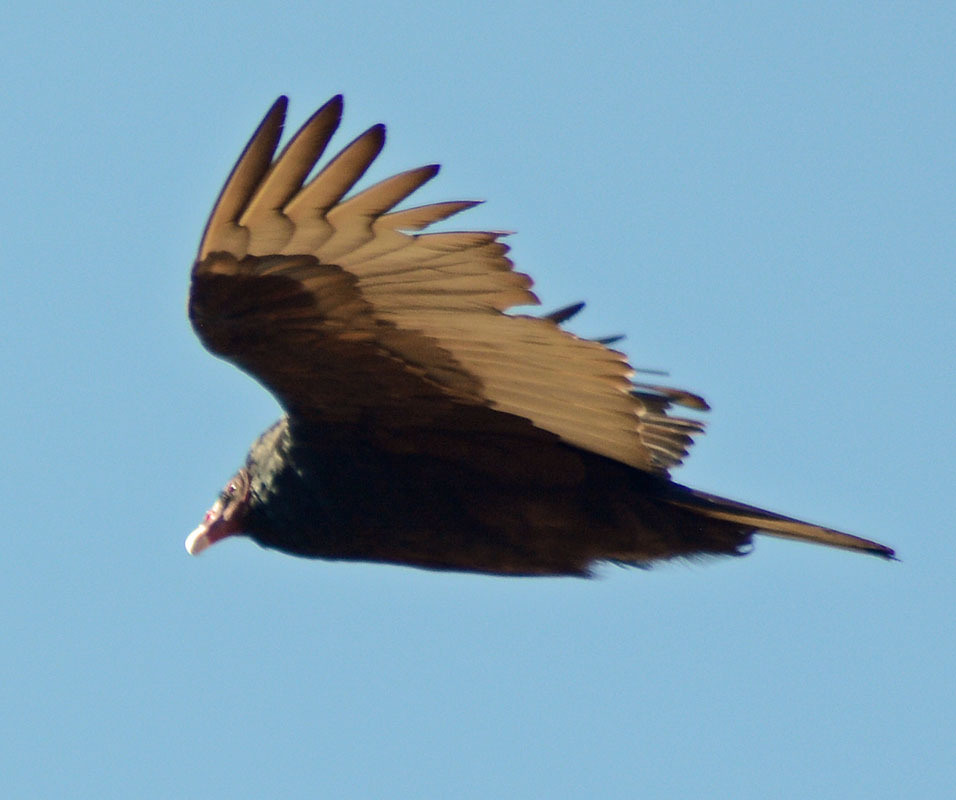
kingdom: Animalia
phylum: Chordata
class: Aves
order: Accipitriformes
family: Cathartidae
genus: Cathartes
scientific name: Cathartes aura
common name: Turkey vulture
